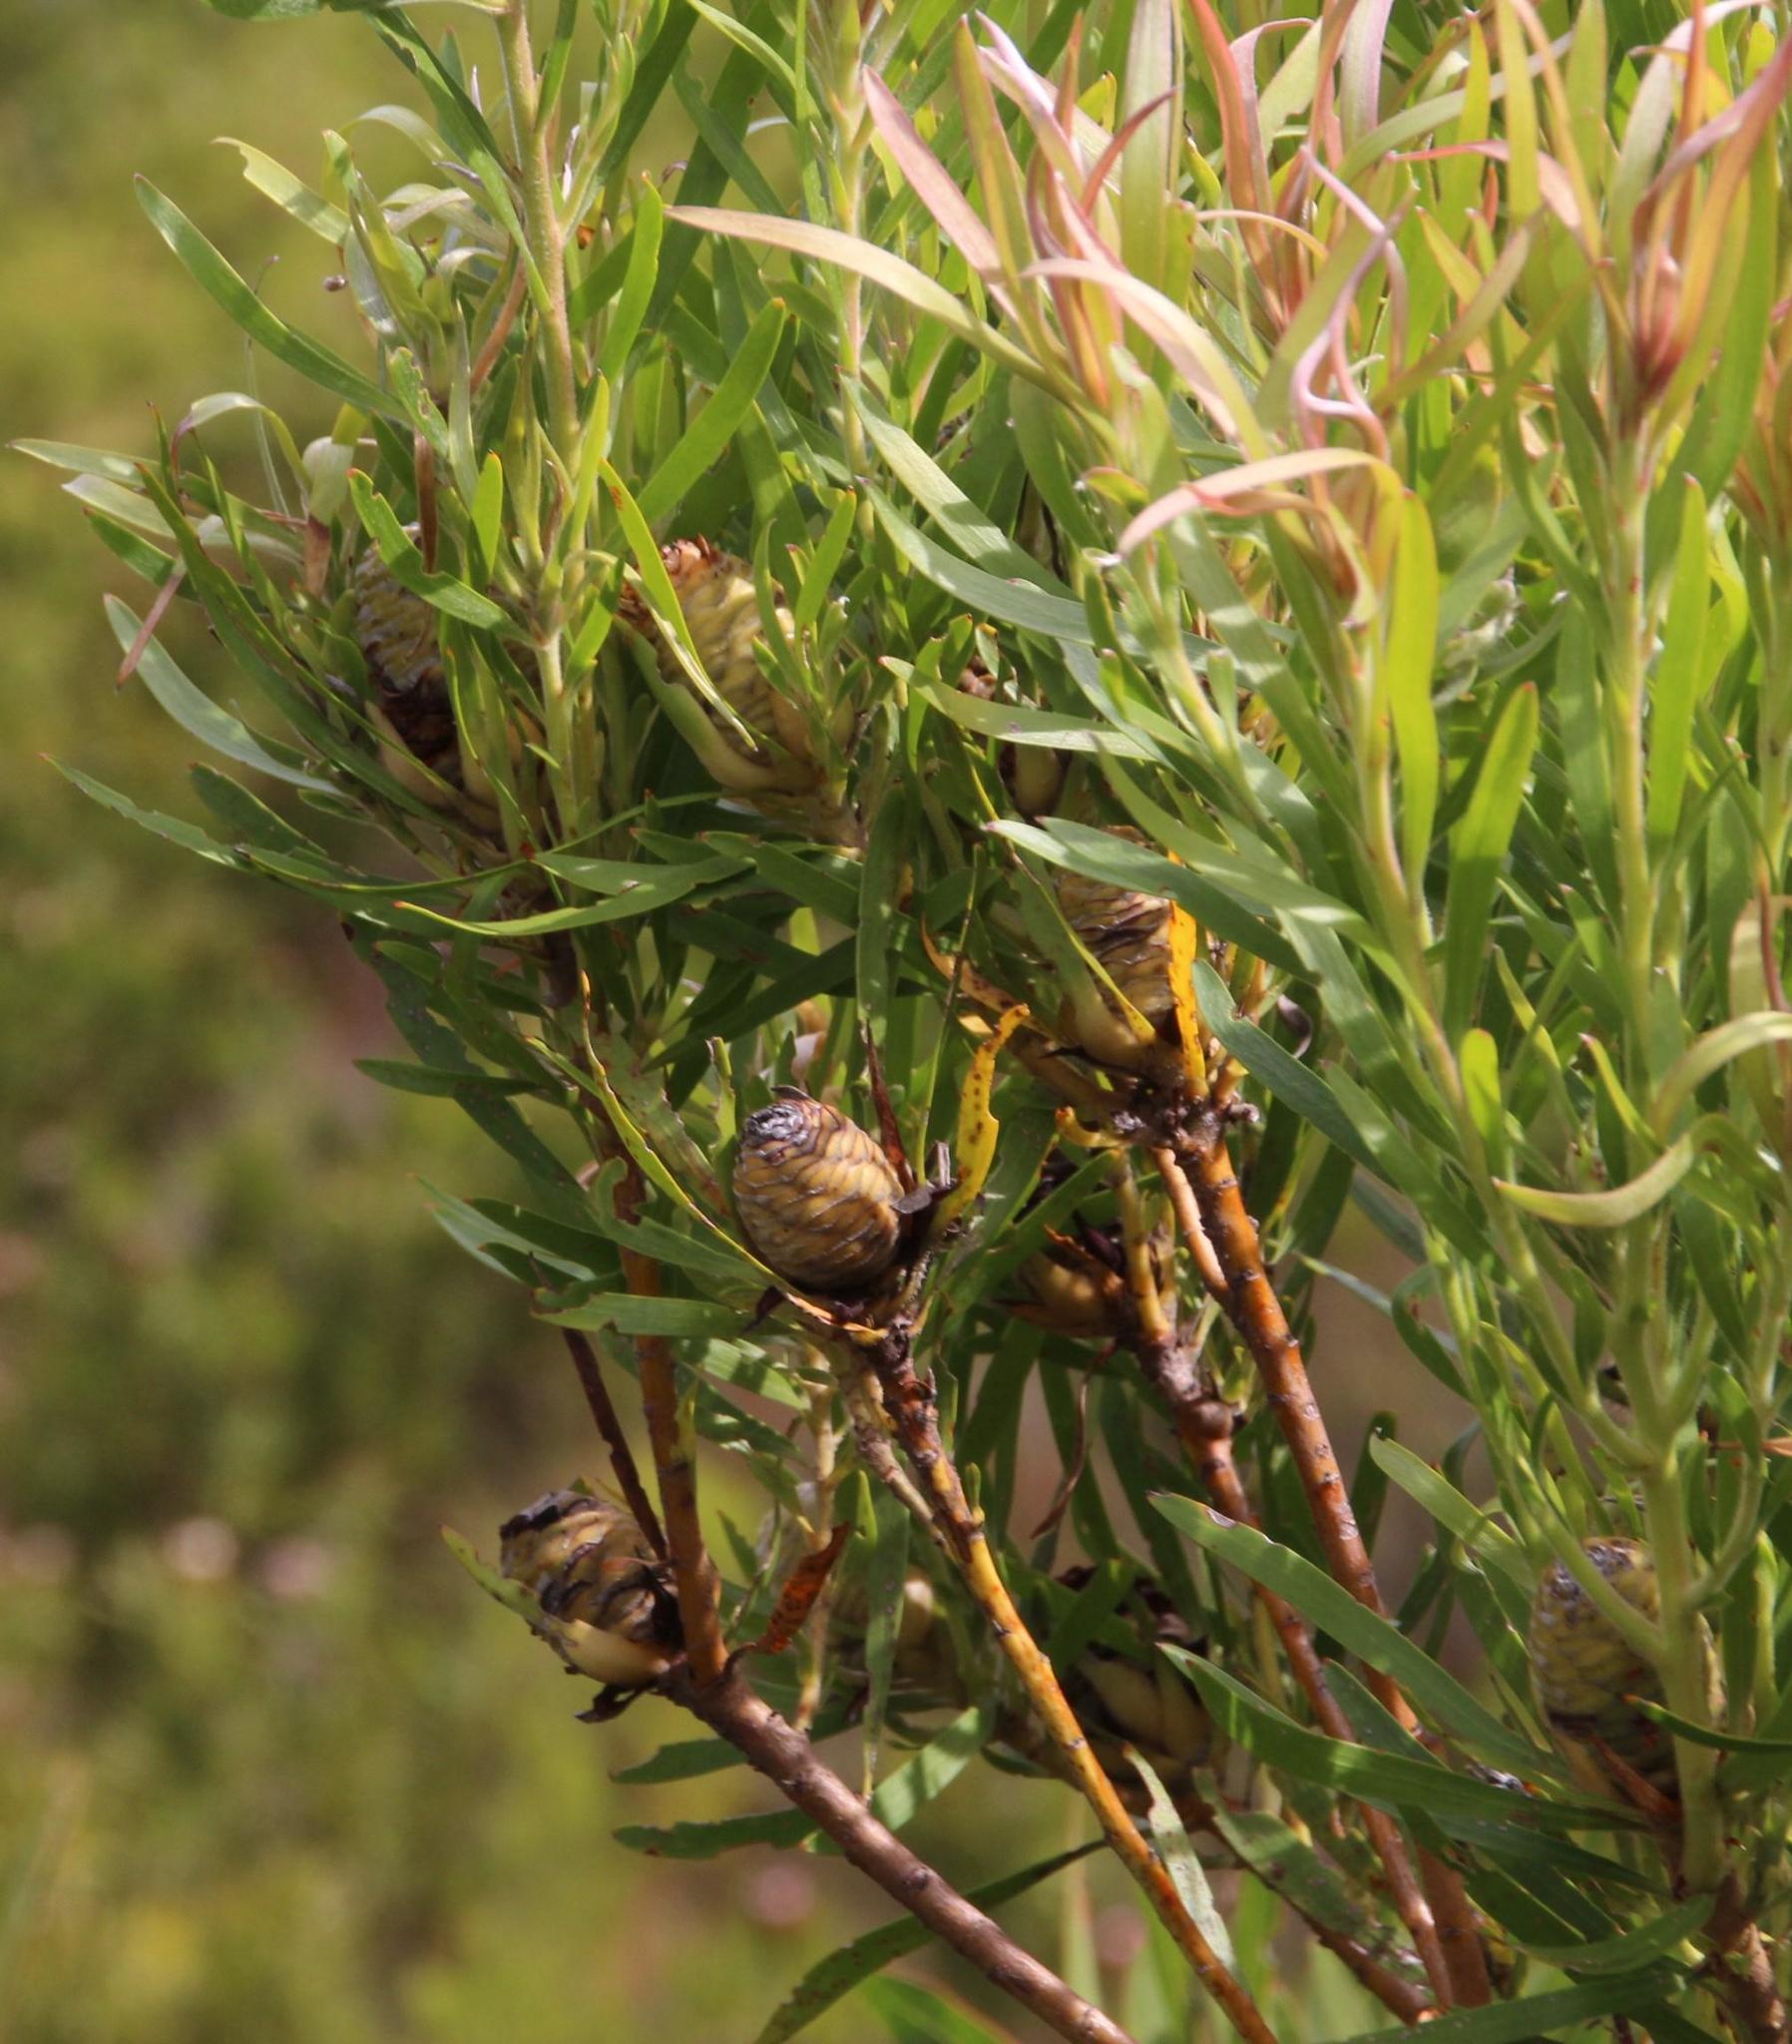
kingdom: Plantae
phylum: Tracheophyta
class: Magnoliopsida
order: Proteales
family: Proteaceae
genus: Leucadendron
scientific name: Leucadendron eucalyptifolium
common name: Gum-leaved conebush
